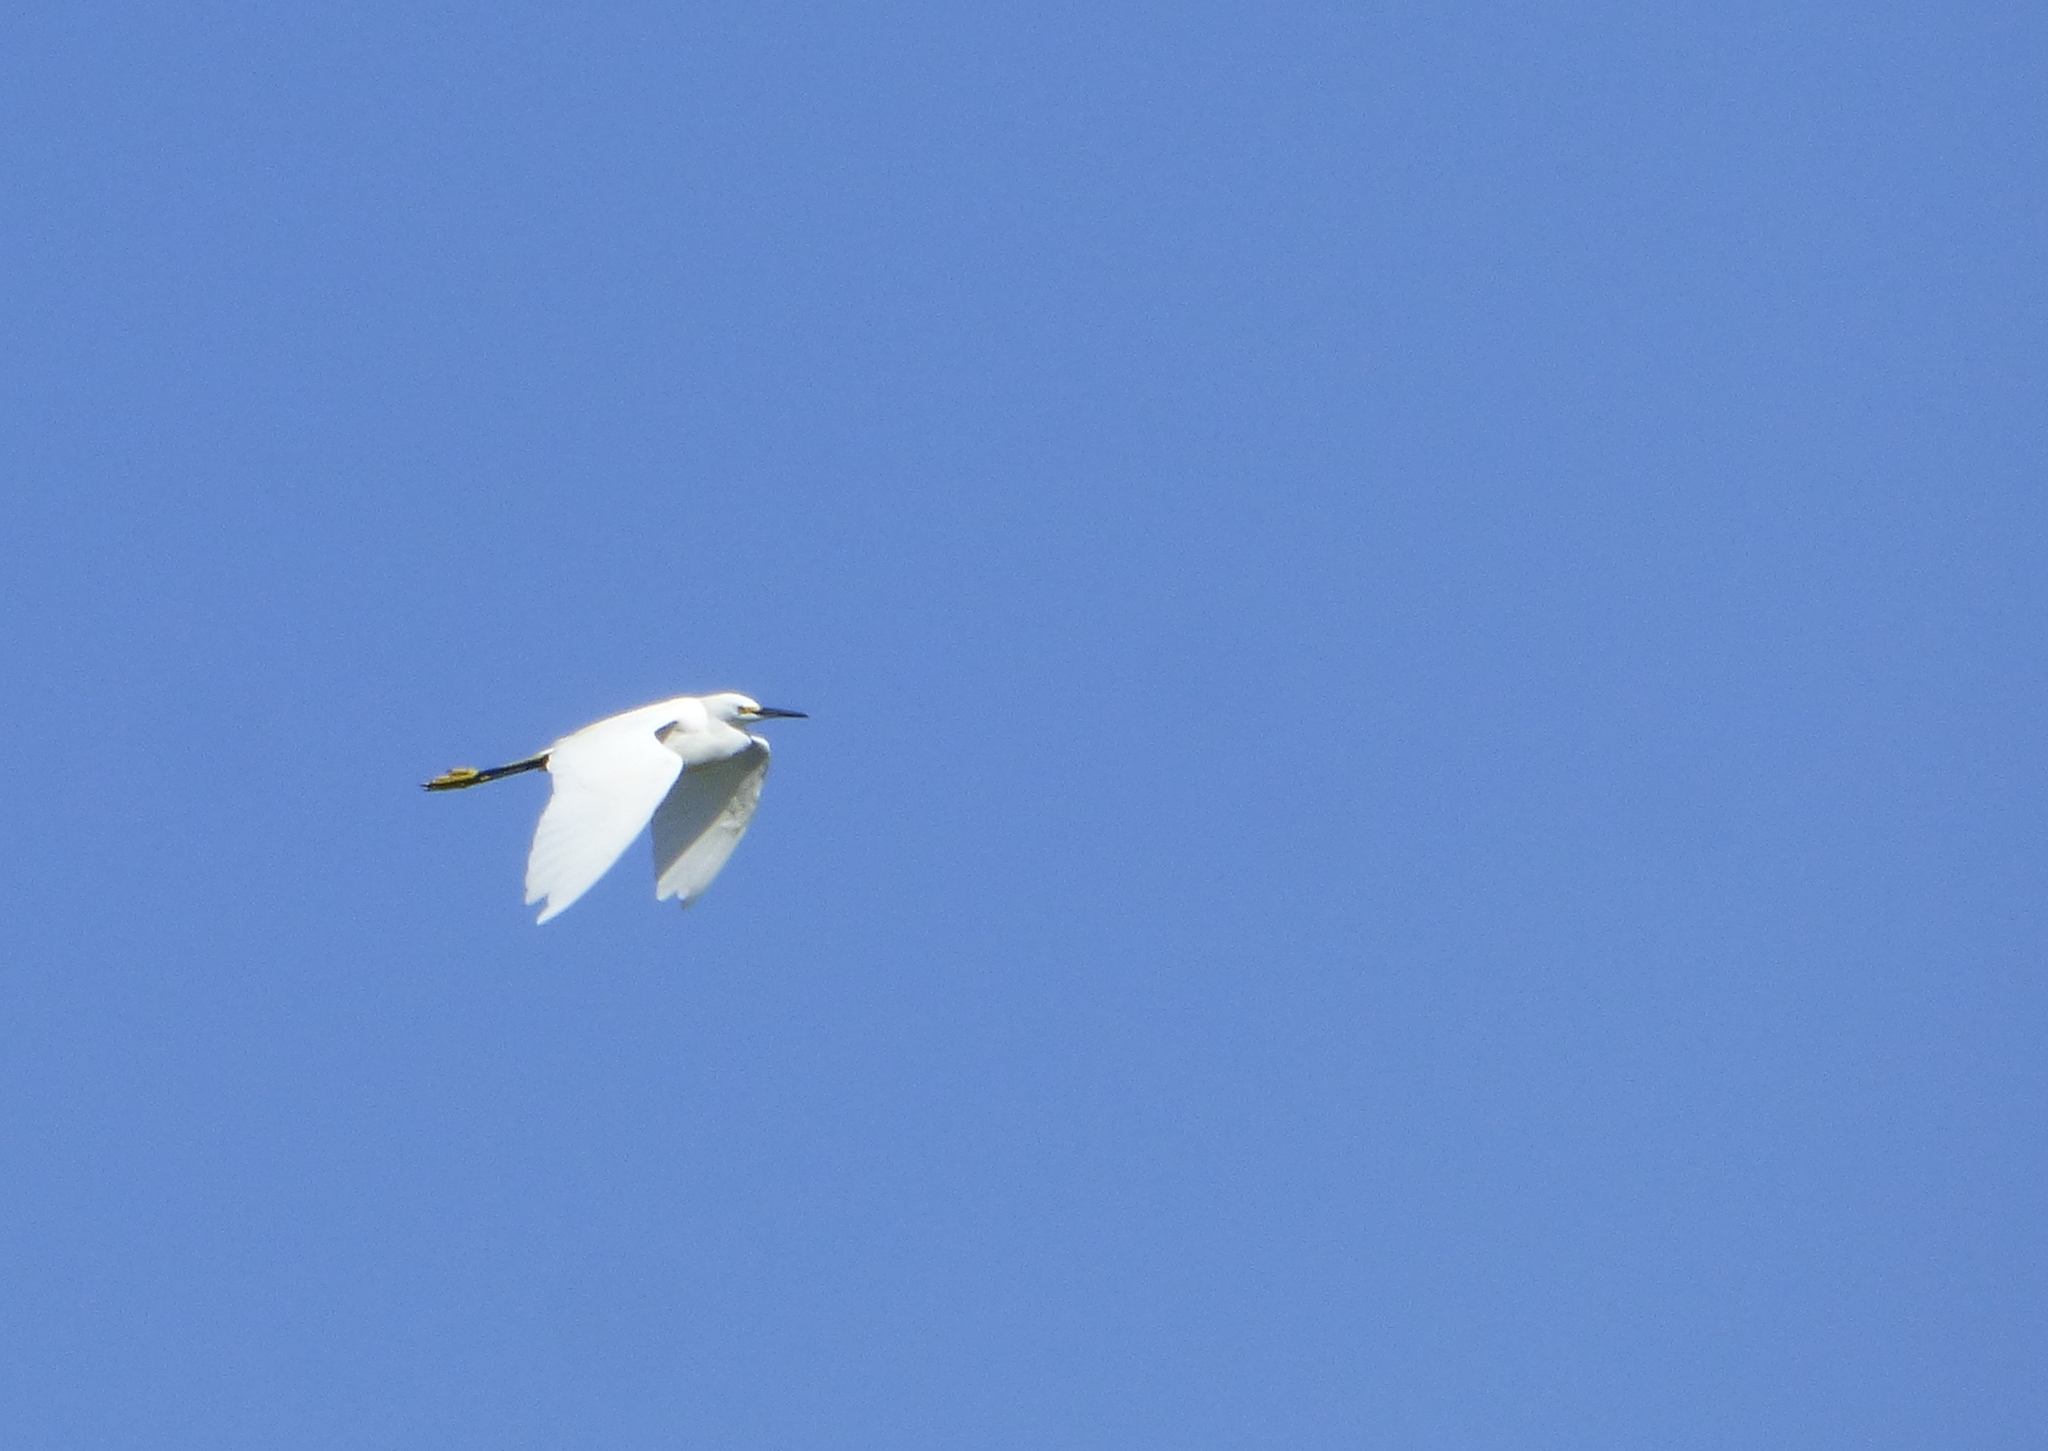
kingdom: Animalia
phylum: Chordata
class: Aves
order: Pelecaniformes
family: Ardeidae
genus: Egretta
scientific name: Egretta thula
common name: Snowy egret
